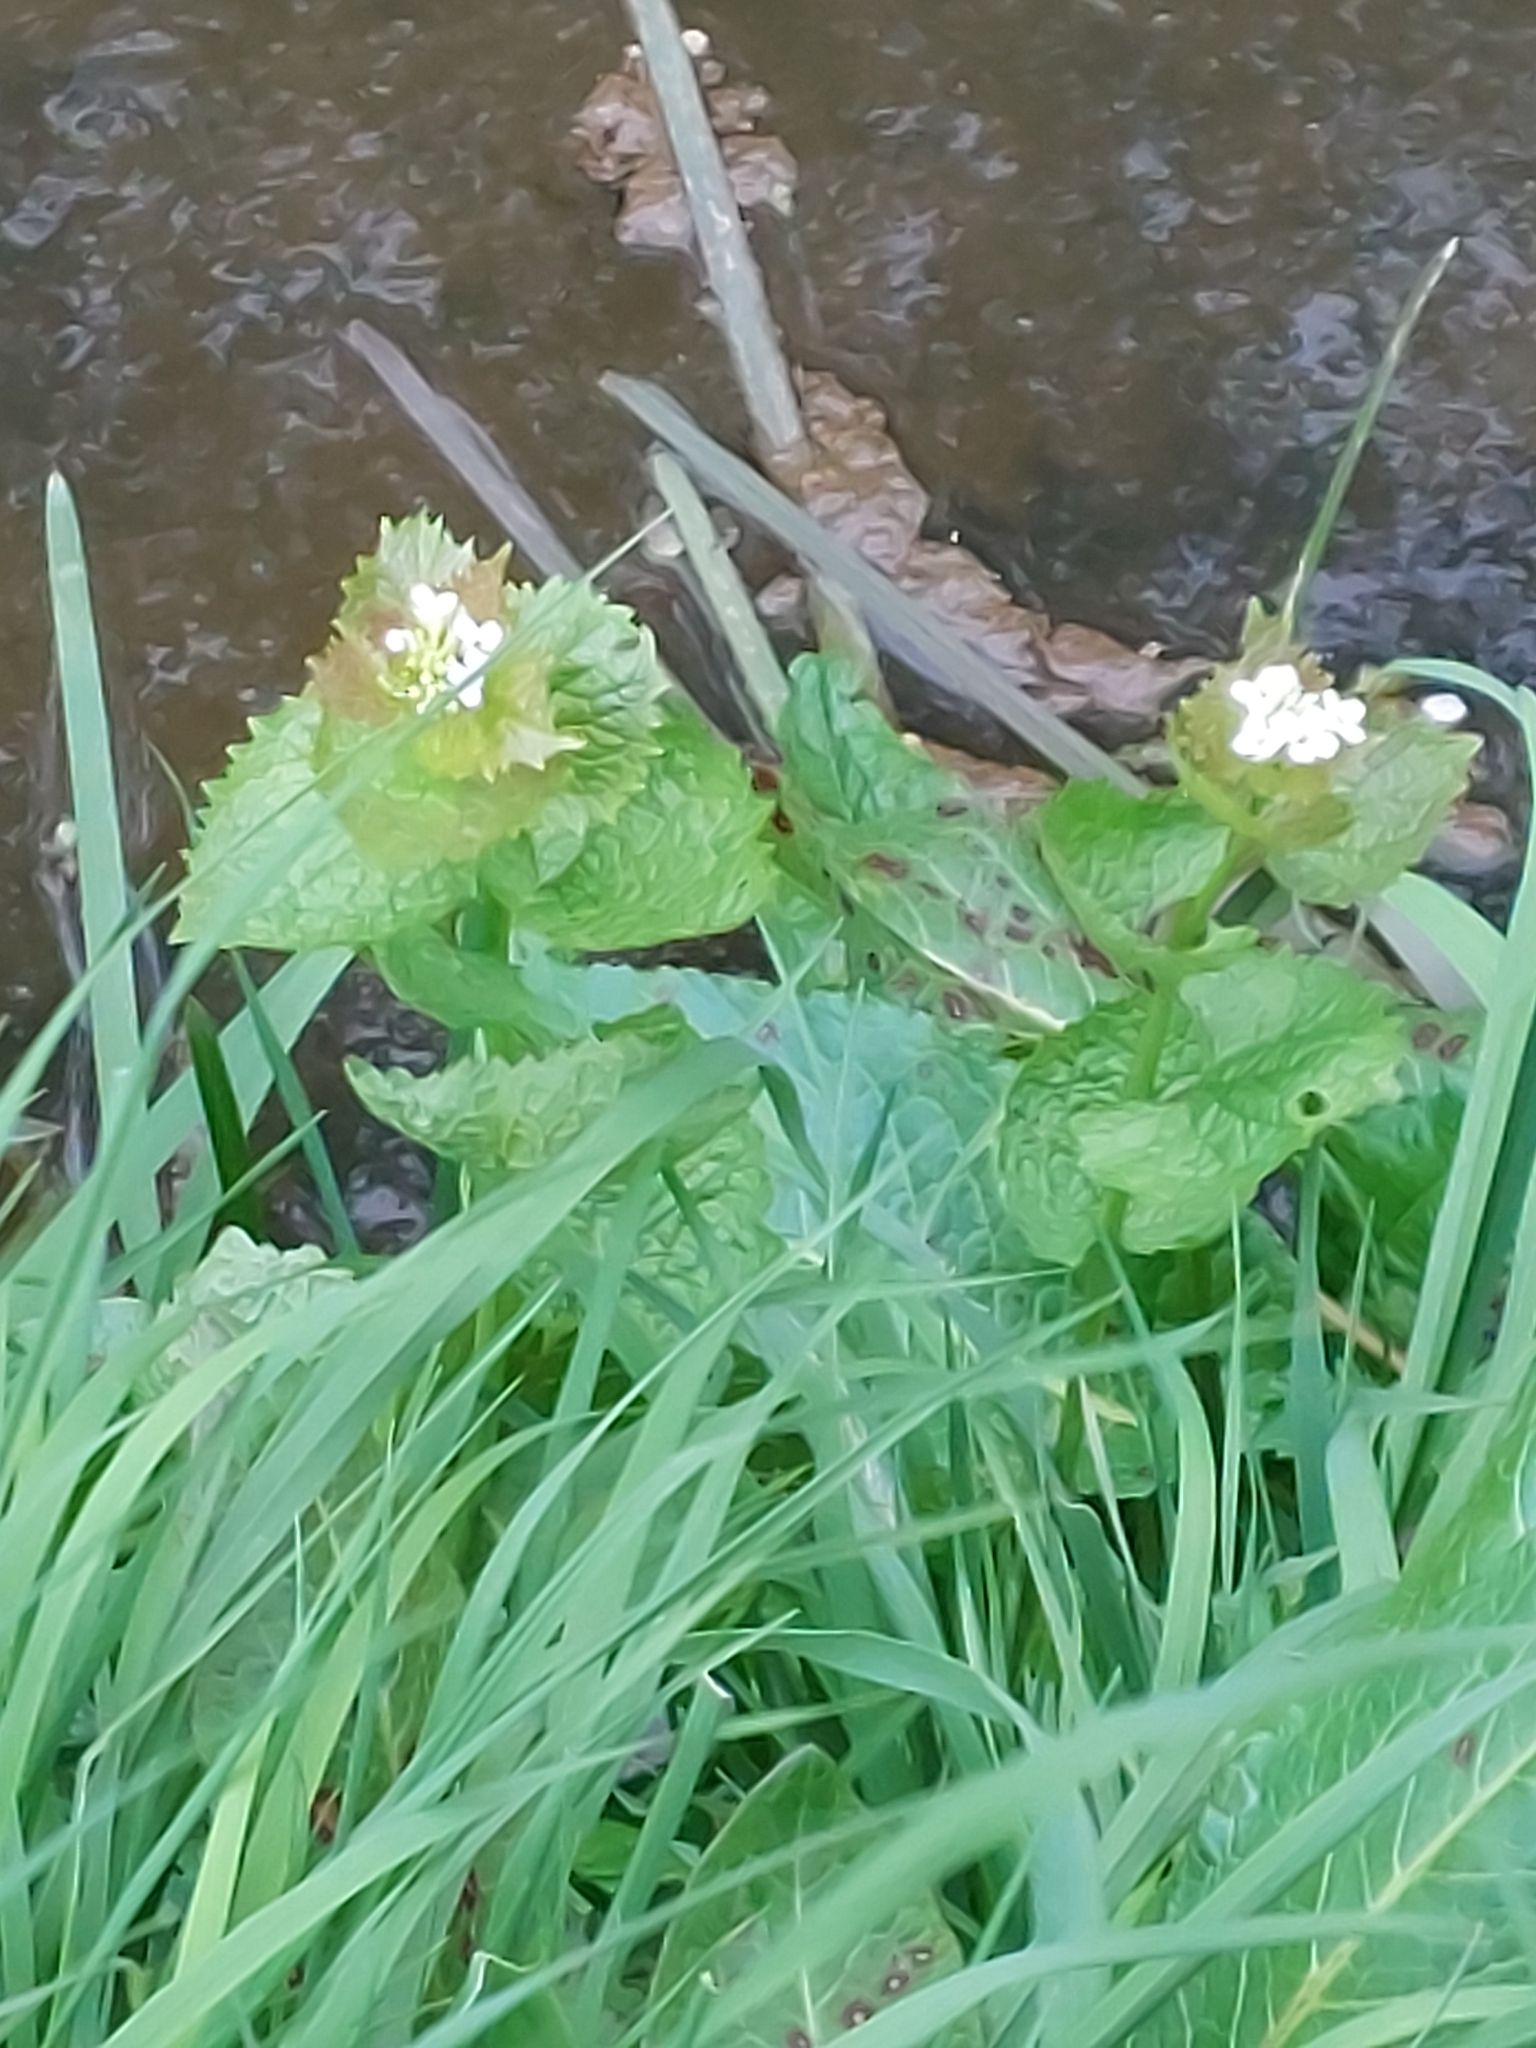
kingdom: Plantae
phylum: Tracheophyta
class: Magnoliopsida
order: Brassicales
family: Brassicaceae
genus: Alliaria
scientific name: Alliaria petiolata
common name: Garlic mustard
